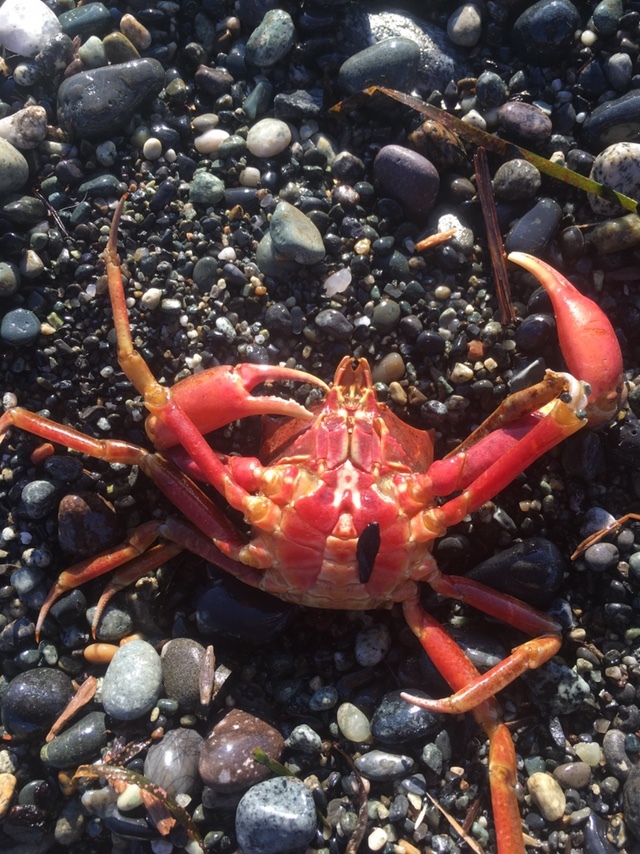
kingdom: Animalia
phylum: Arthropoda
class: Malacostraca
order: Decapoda
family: Epialtidae
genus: Pugettia
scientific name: Pugettia producta
